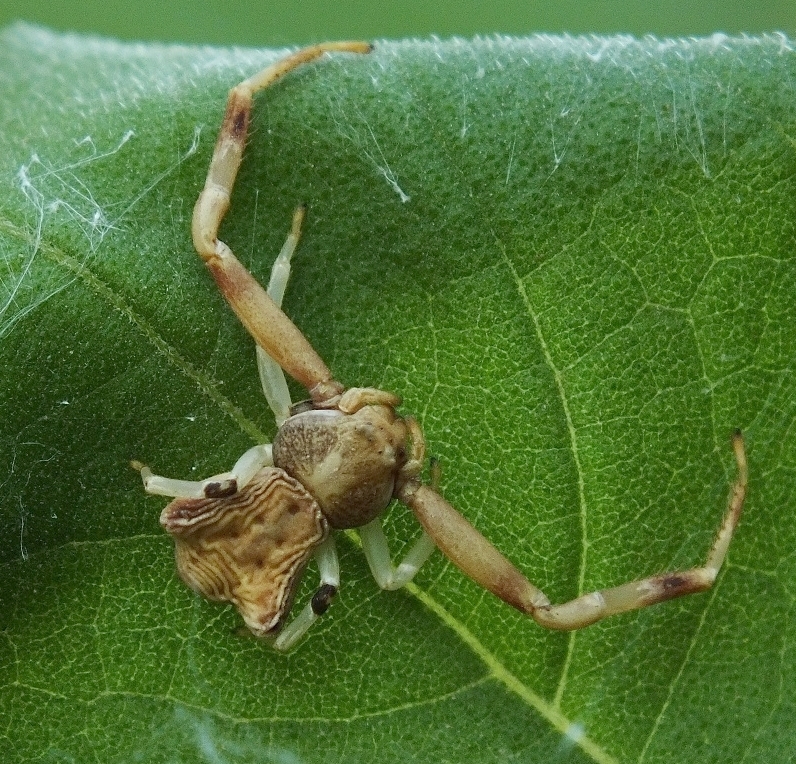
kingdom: Animalia
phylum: Arthropoda
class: Arachnida
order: Araneae
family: Thomisidae
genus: Pistius
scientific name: Pistius truncatus
